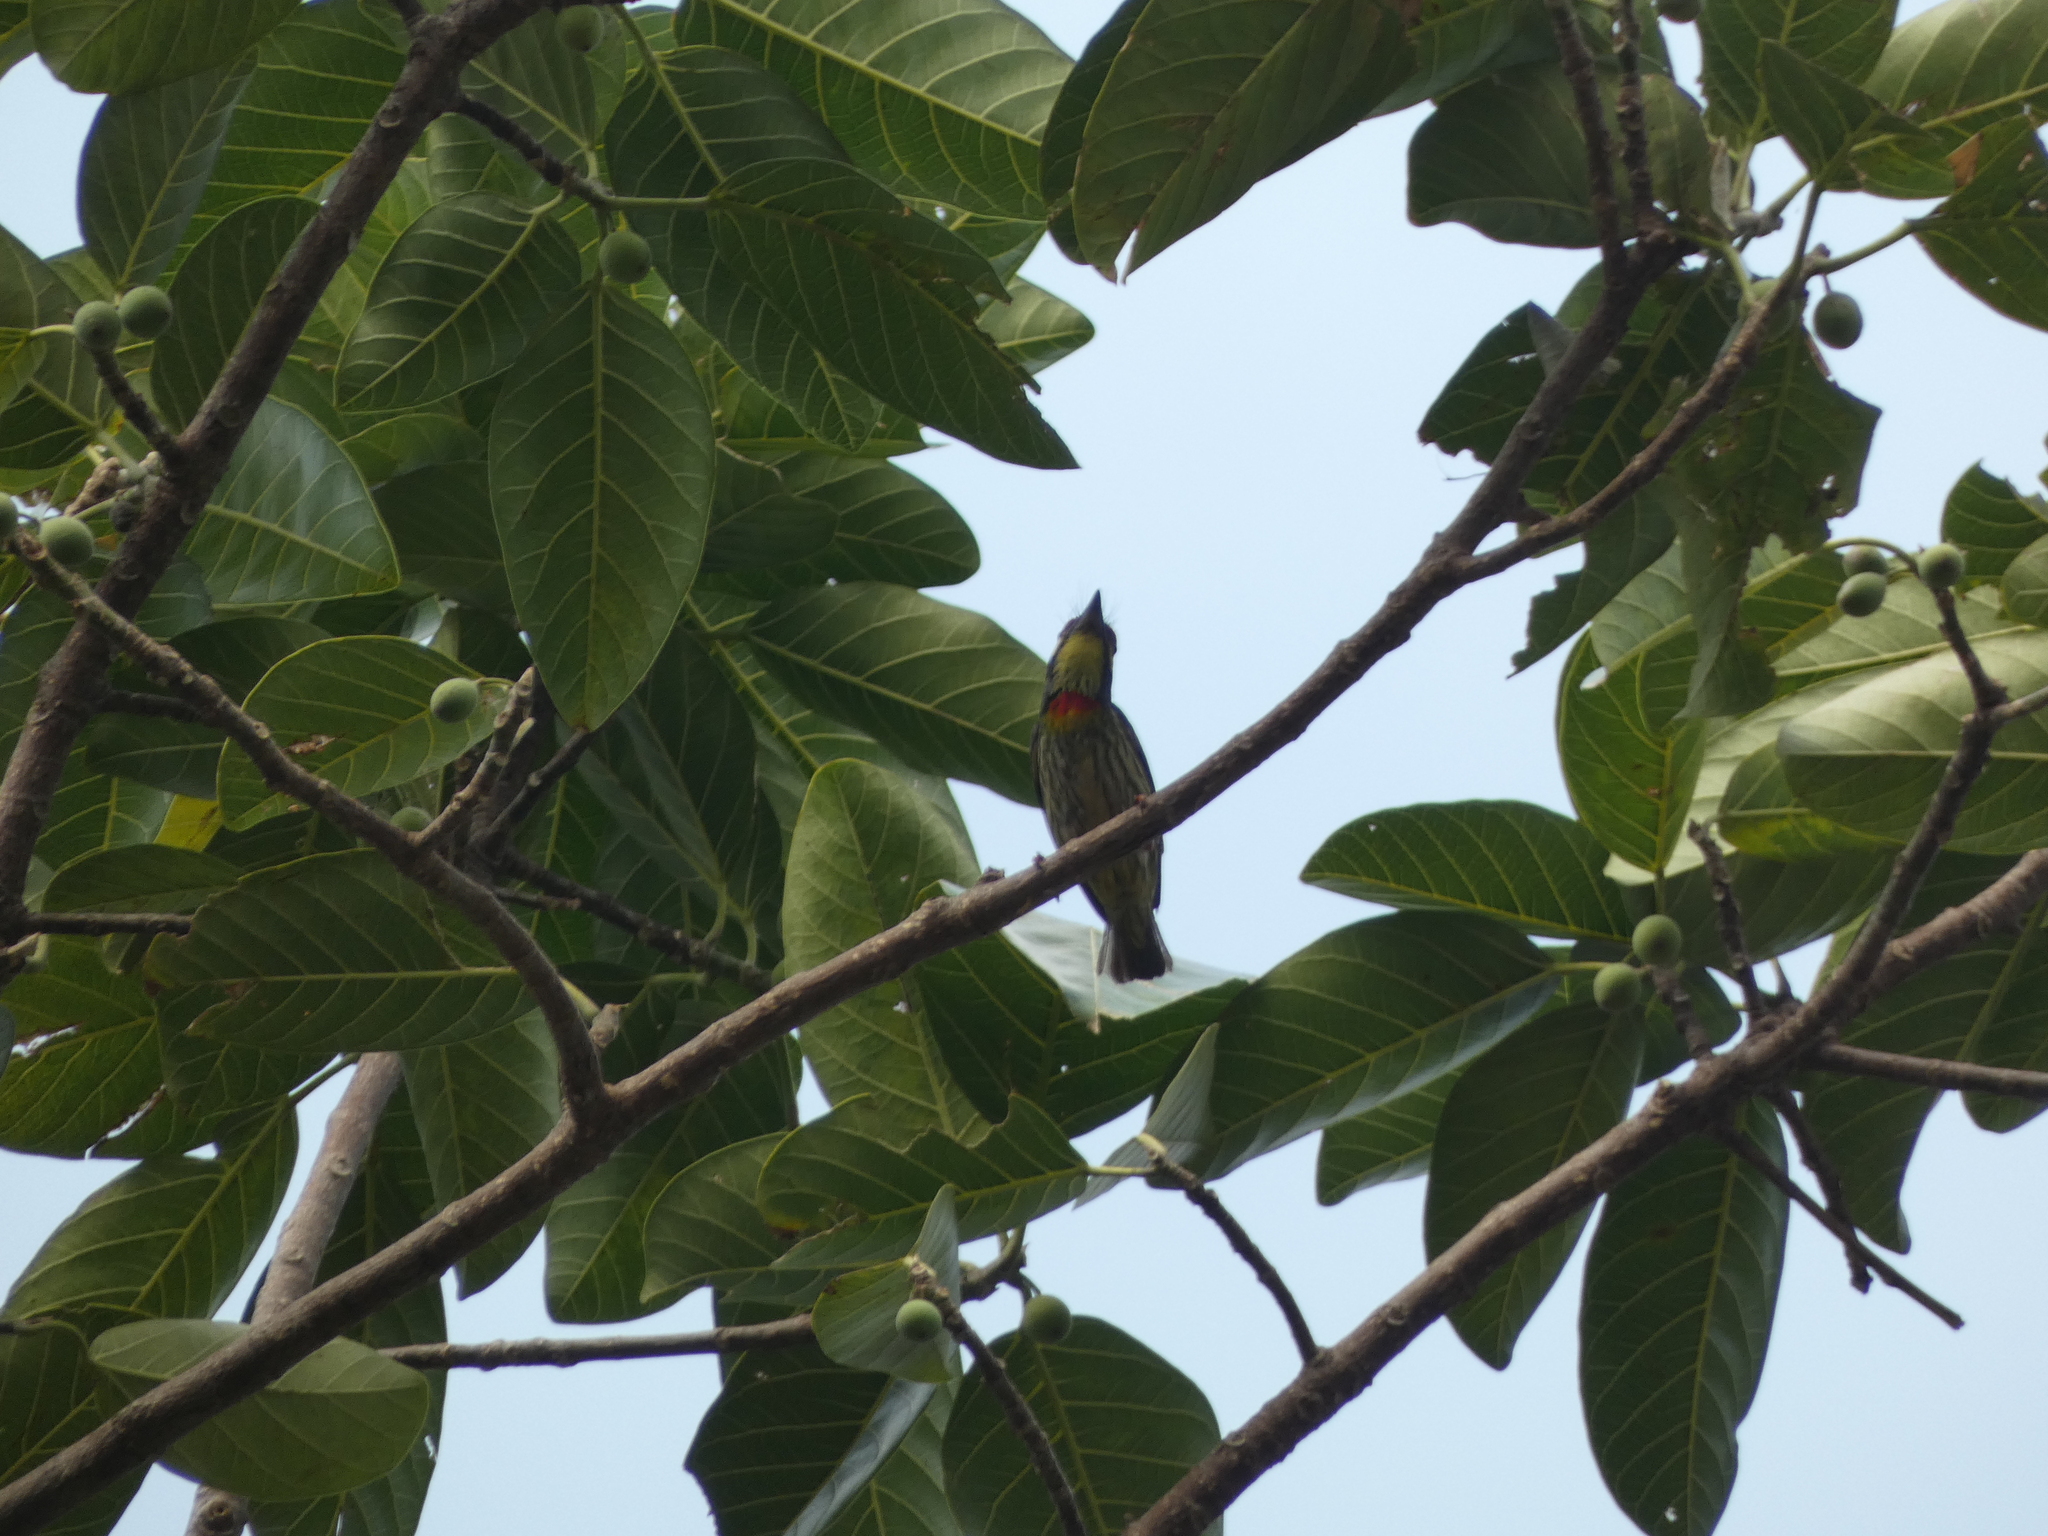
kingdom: Animalia
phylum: Chordata
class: Aves
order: Piciformes
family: Megalaimidae
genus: Psilopogon
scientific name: Psilopogon haemacephalus
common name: Coppersmith barbet
